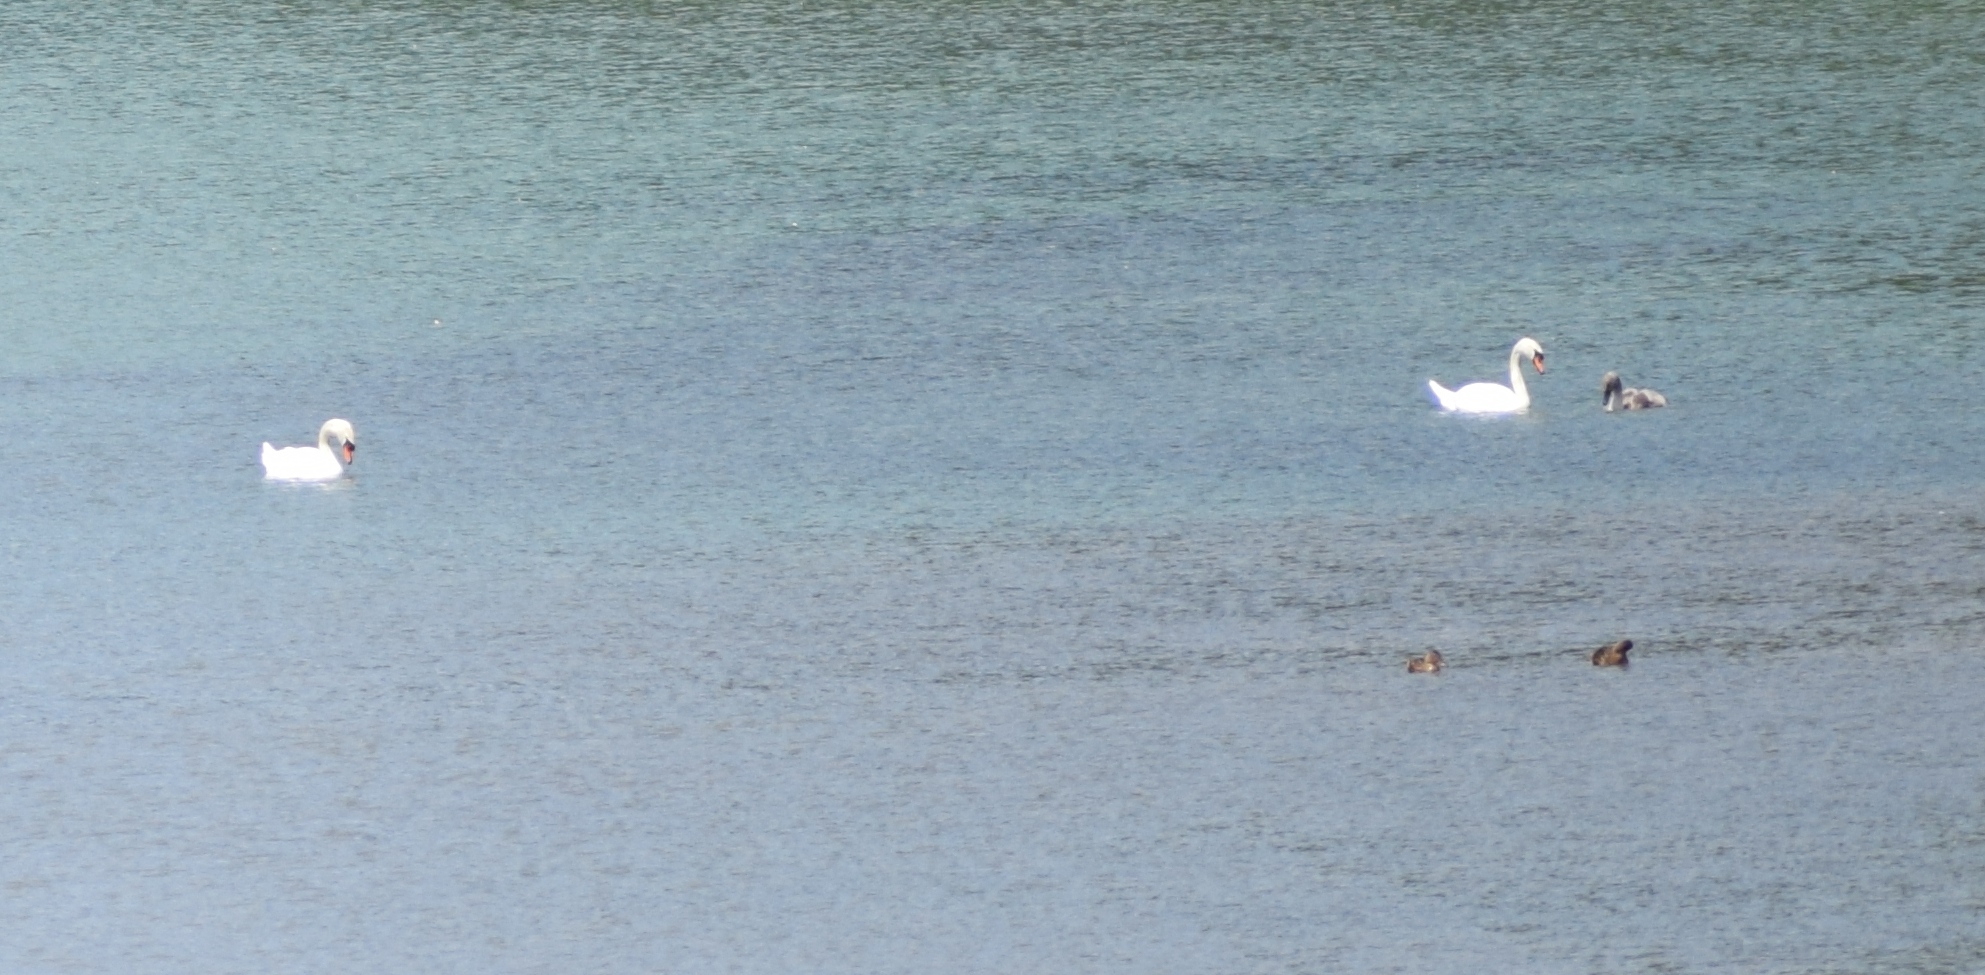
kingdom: Animalia
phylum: Chordata
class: Aves
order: Anseriformes
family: Anatidae
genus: Cygnus
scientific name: Cygnus olor
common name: Mute swan
